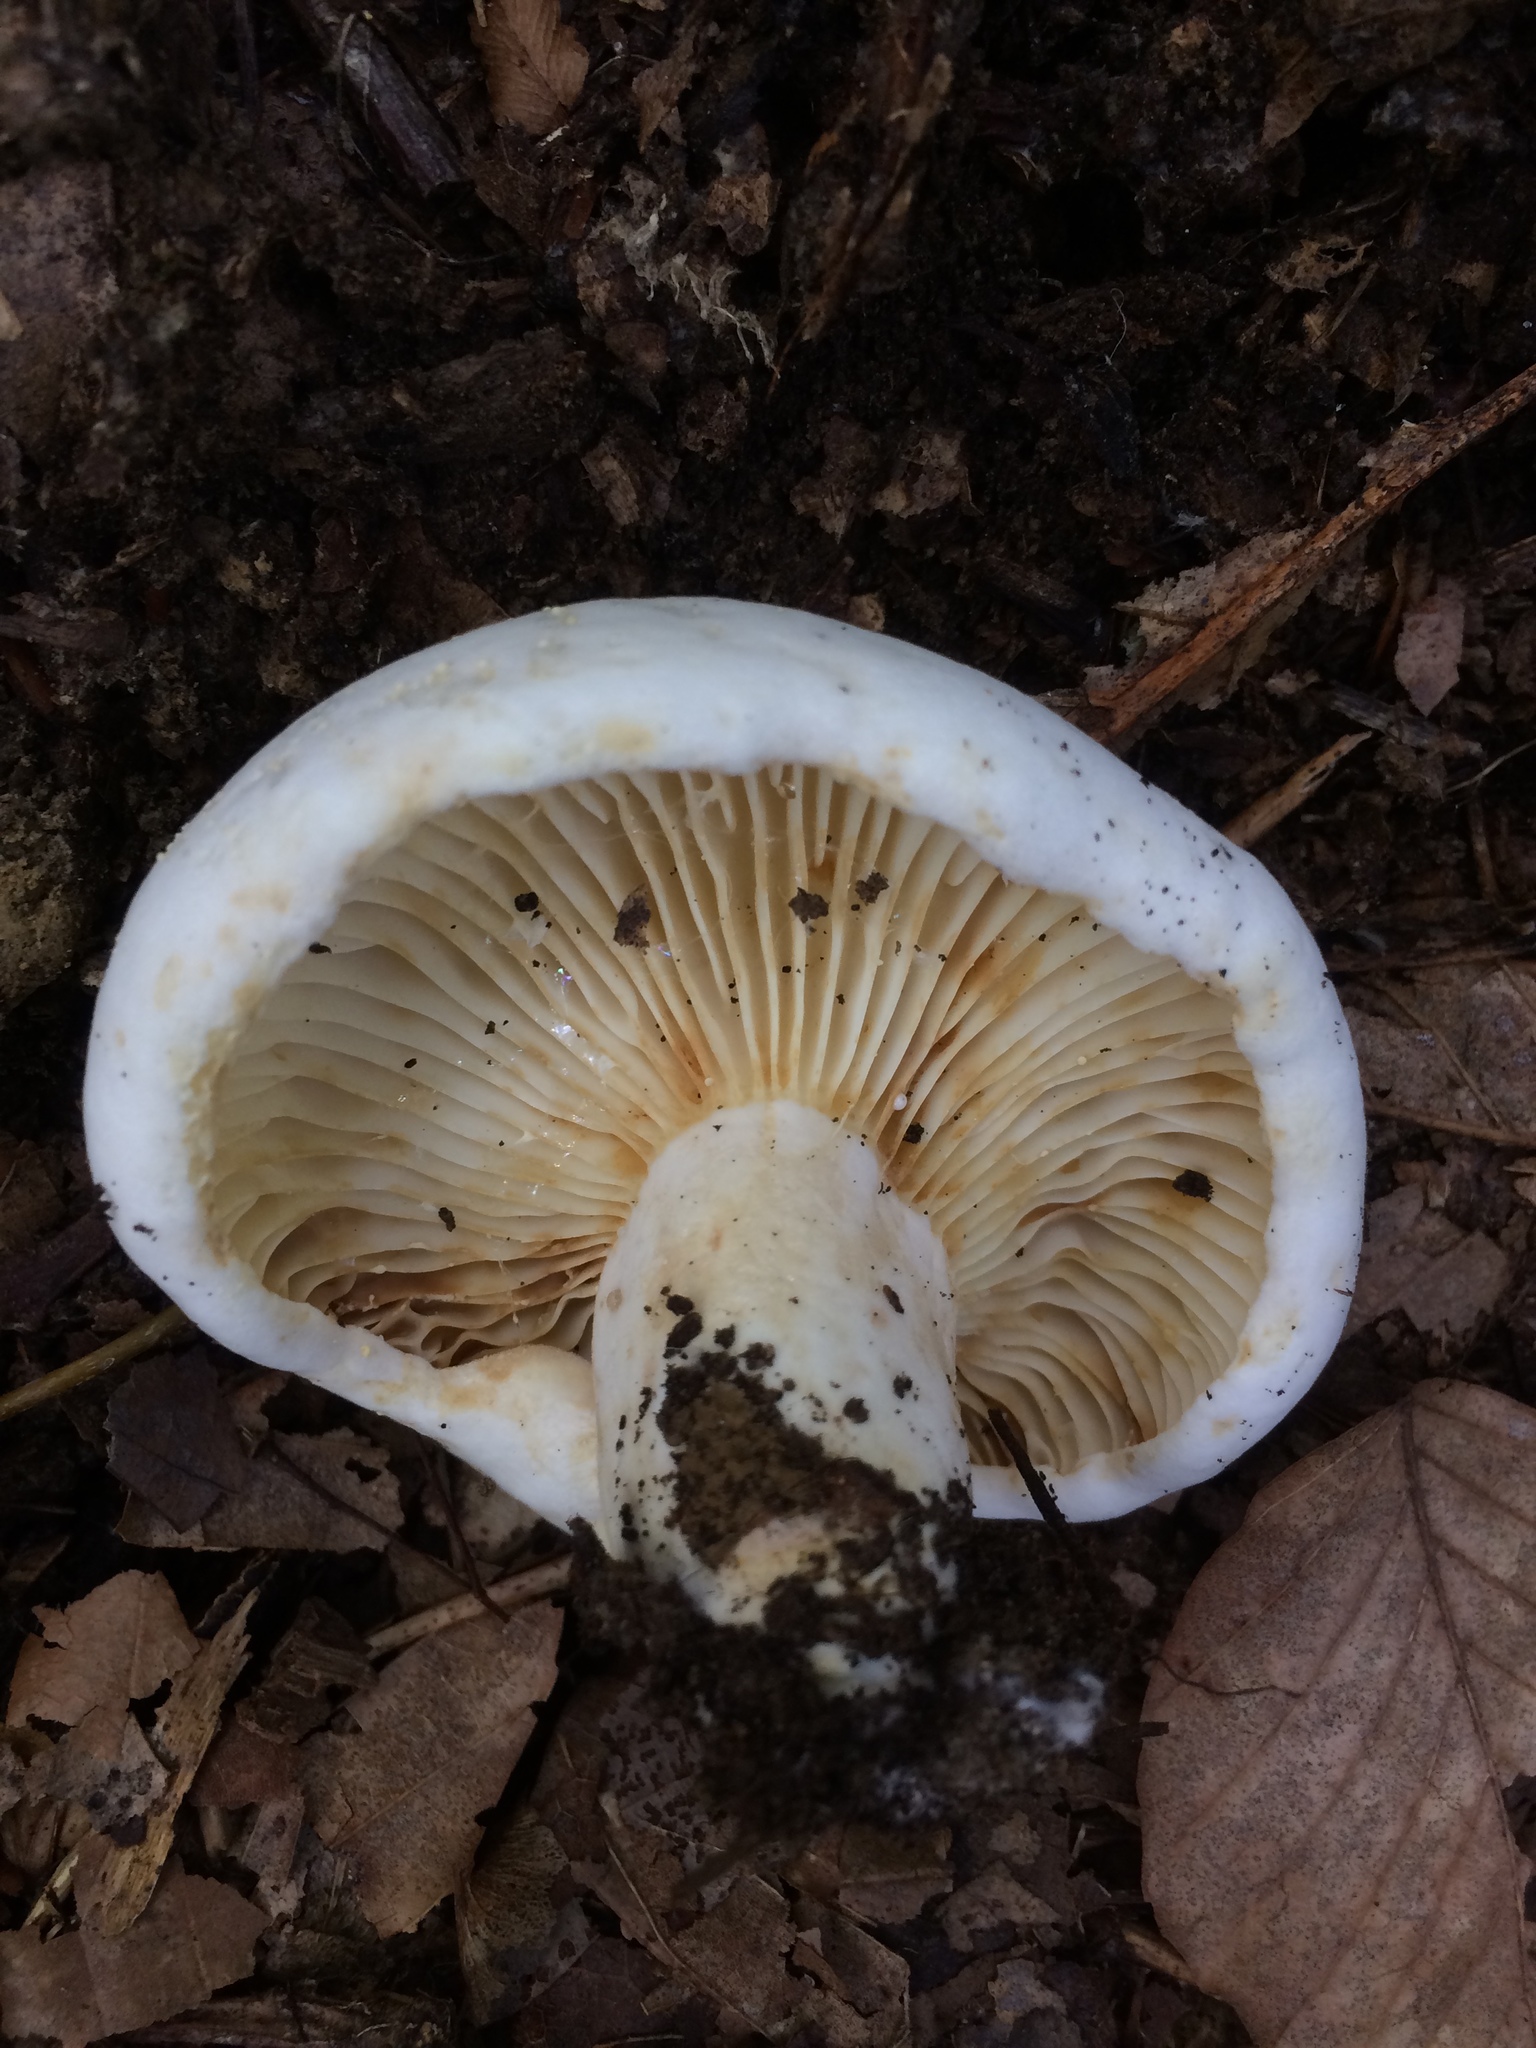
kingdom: Fungi
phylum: Basidiomycota
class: Agaricomycetes
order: Russulales
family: Russulaceae
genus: Lactifluus
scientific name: Lactifluus subvellereus
